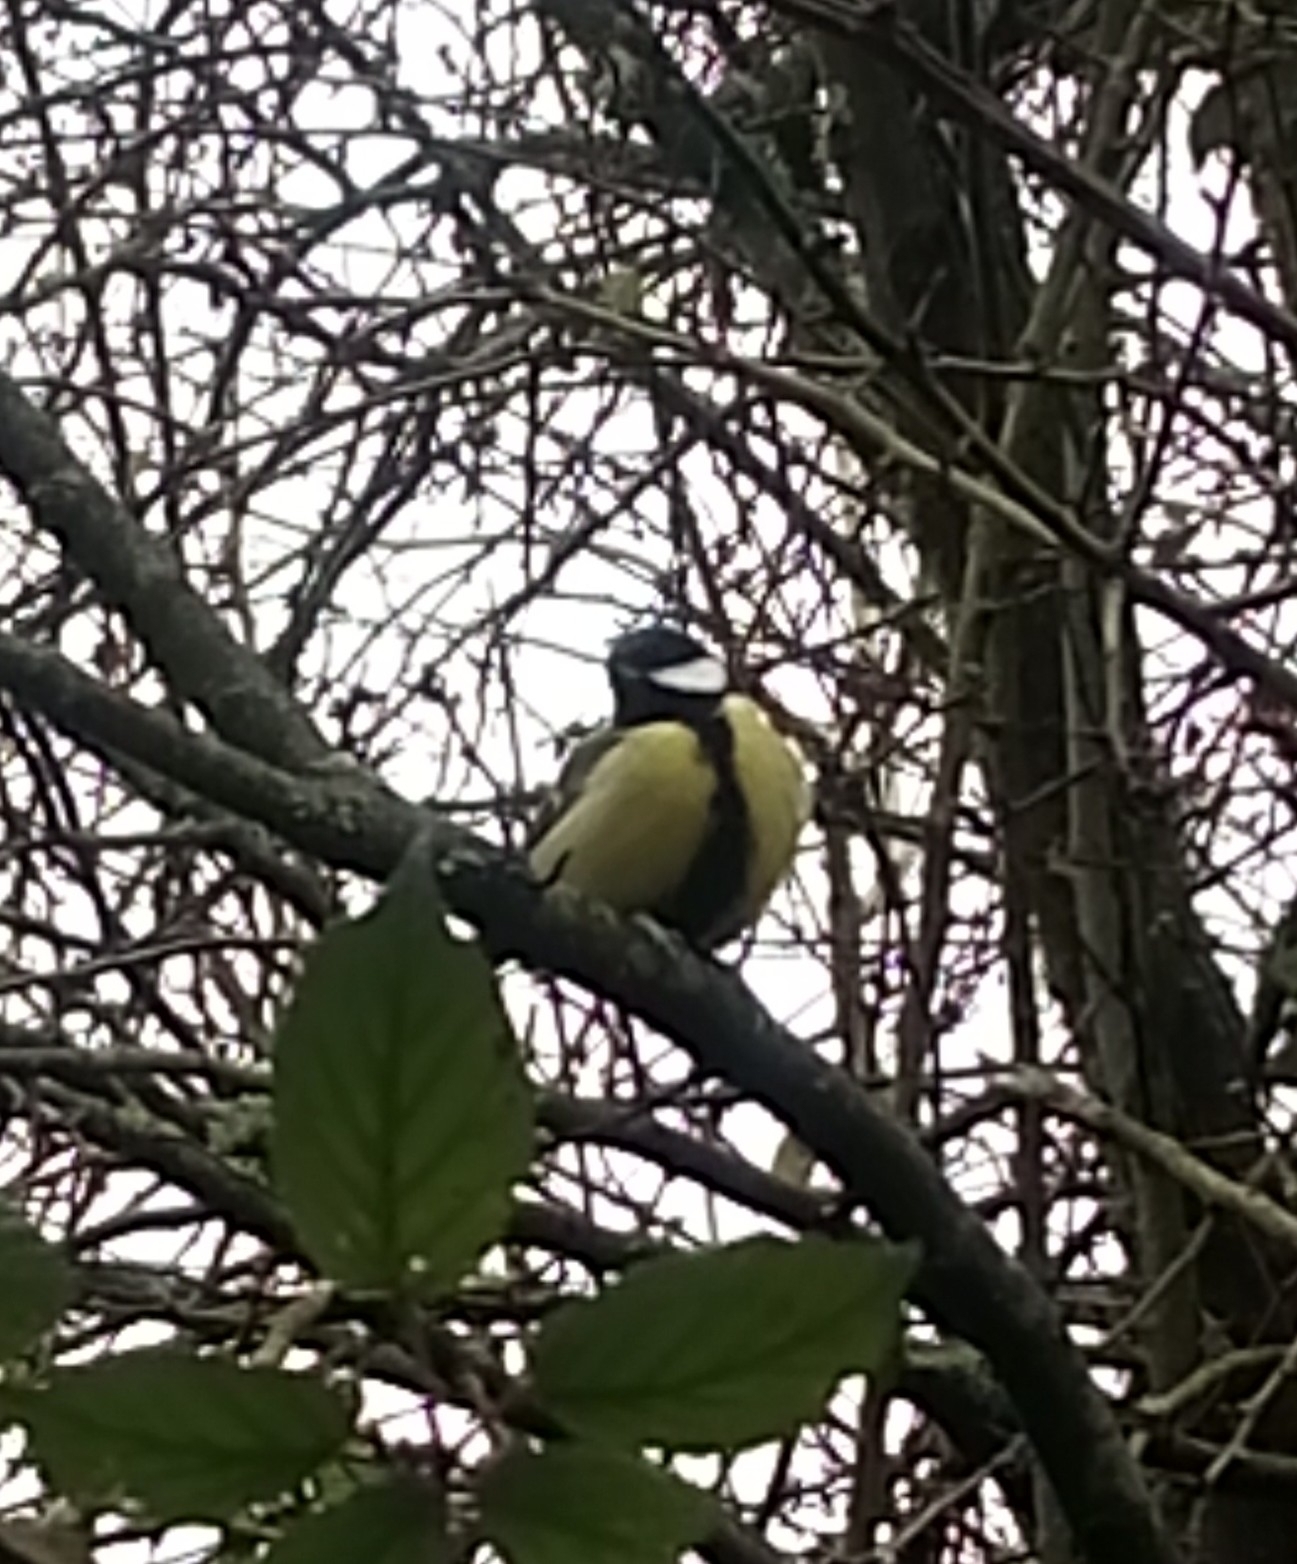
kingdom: Animalia
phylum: Chordata
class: Aves
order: Passeriformes
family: Paridae
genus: Parus
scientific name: Parus major
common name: Great tit
